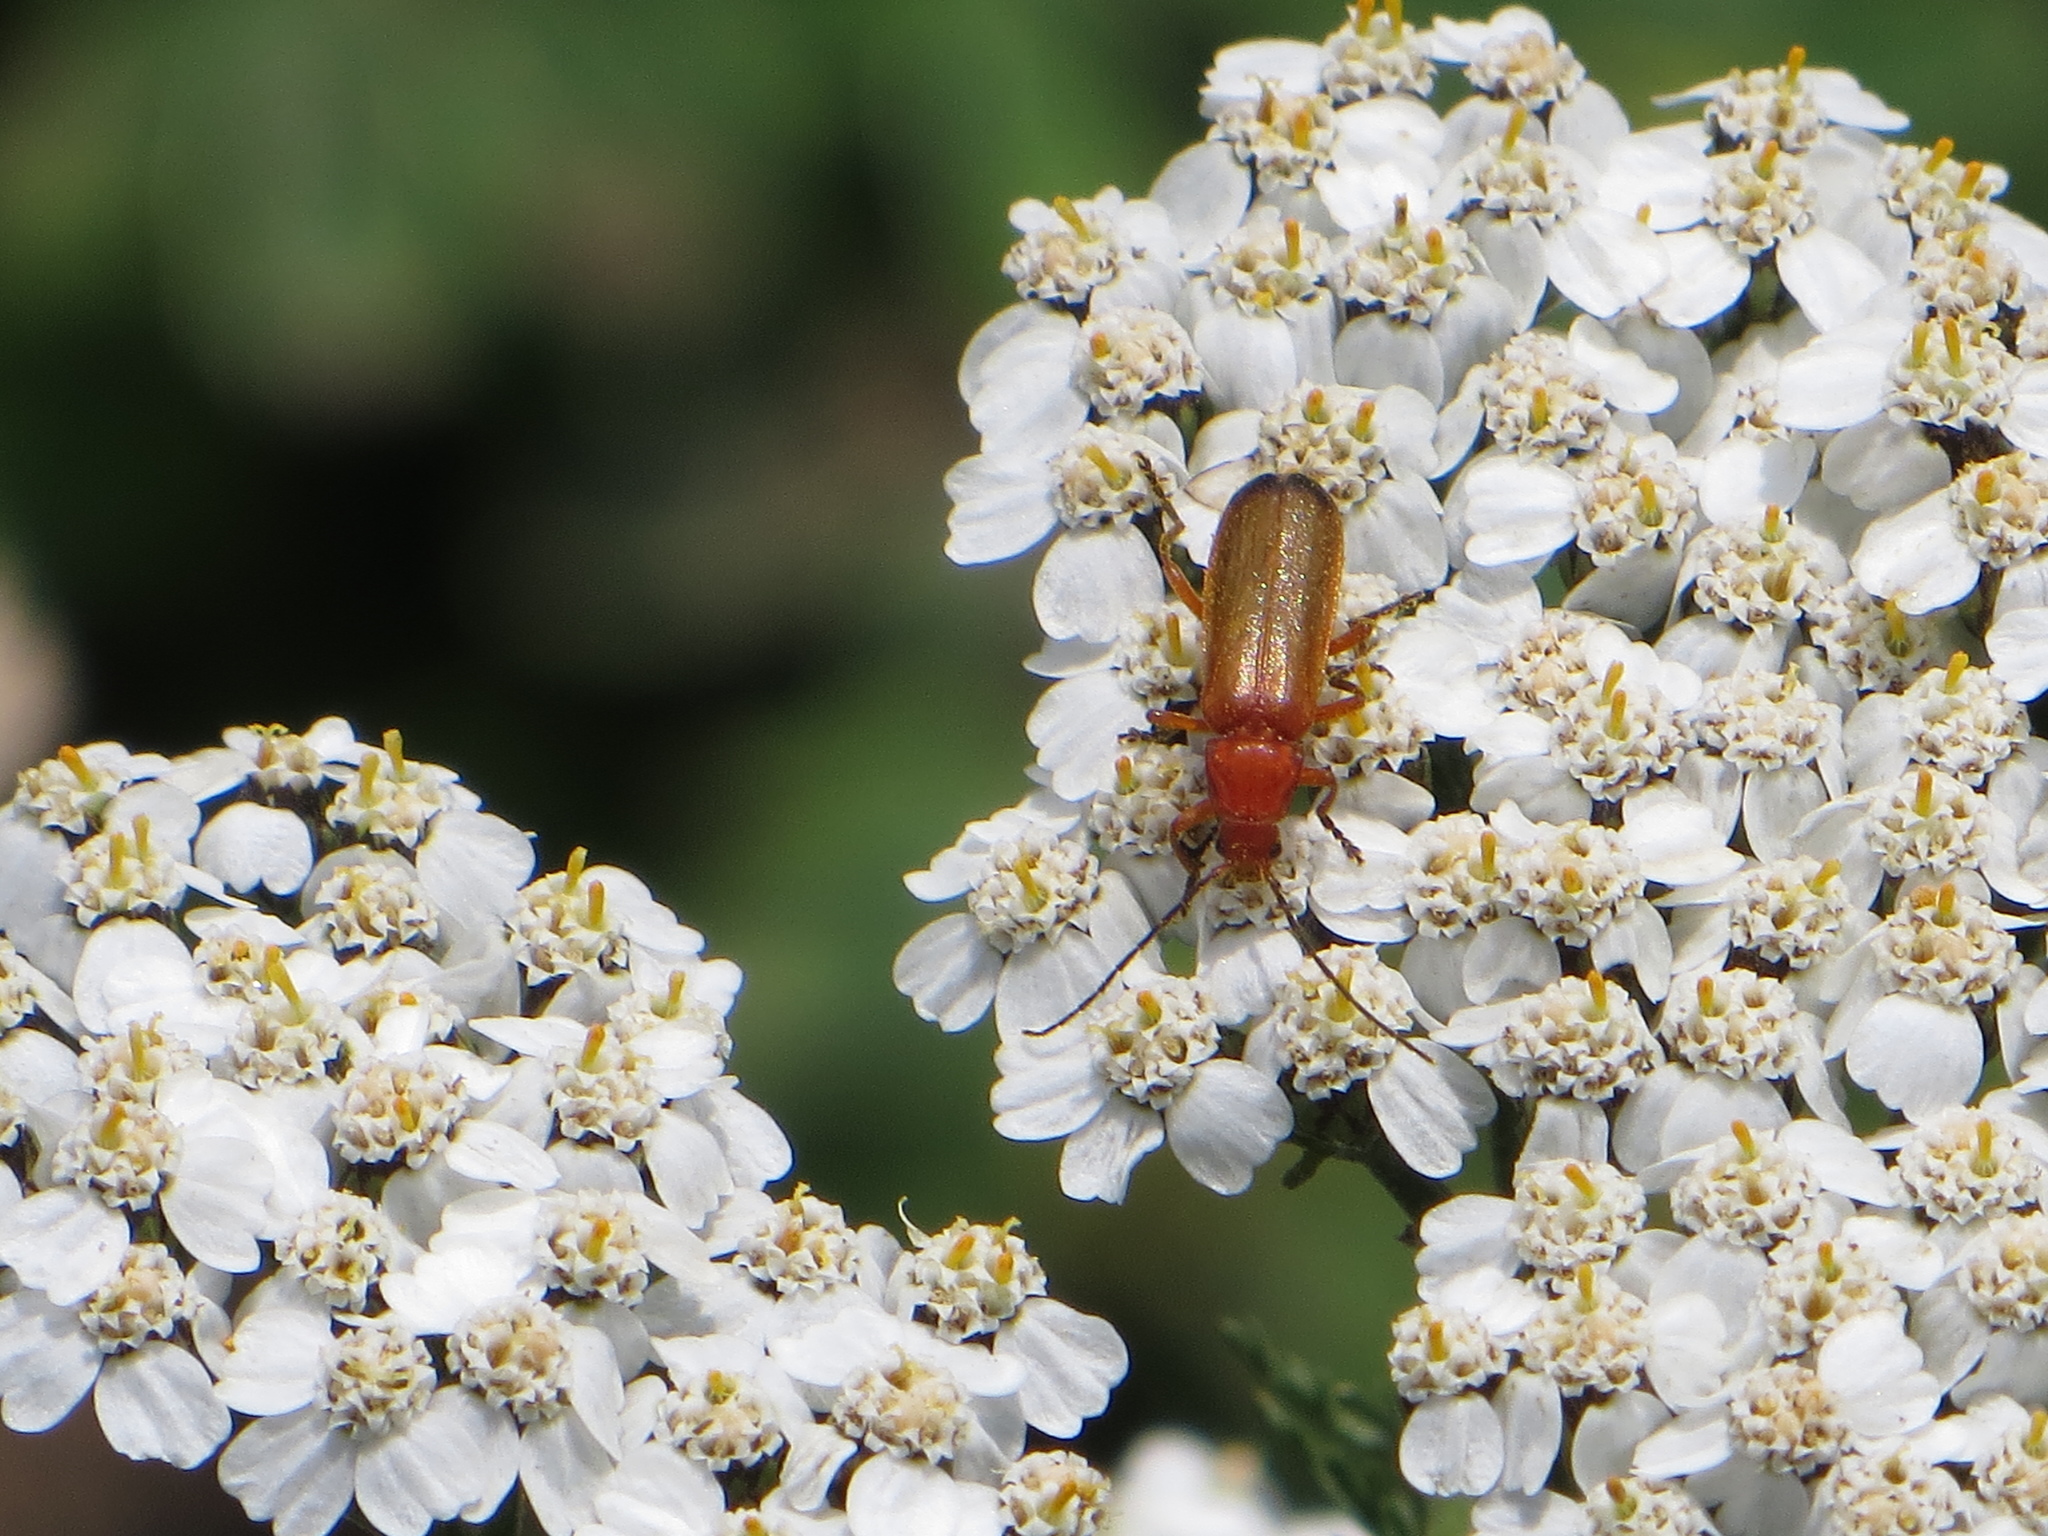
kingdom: Animalia
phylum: Arthropoda
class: Insecta
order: Coleoptera
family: Cantharidae
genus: Rhagonycha
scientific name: Rhagonycha fulva
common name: Common red soldier beetle
